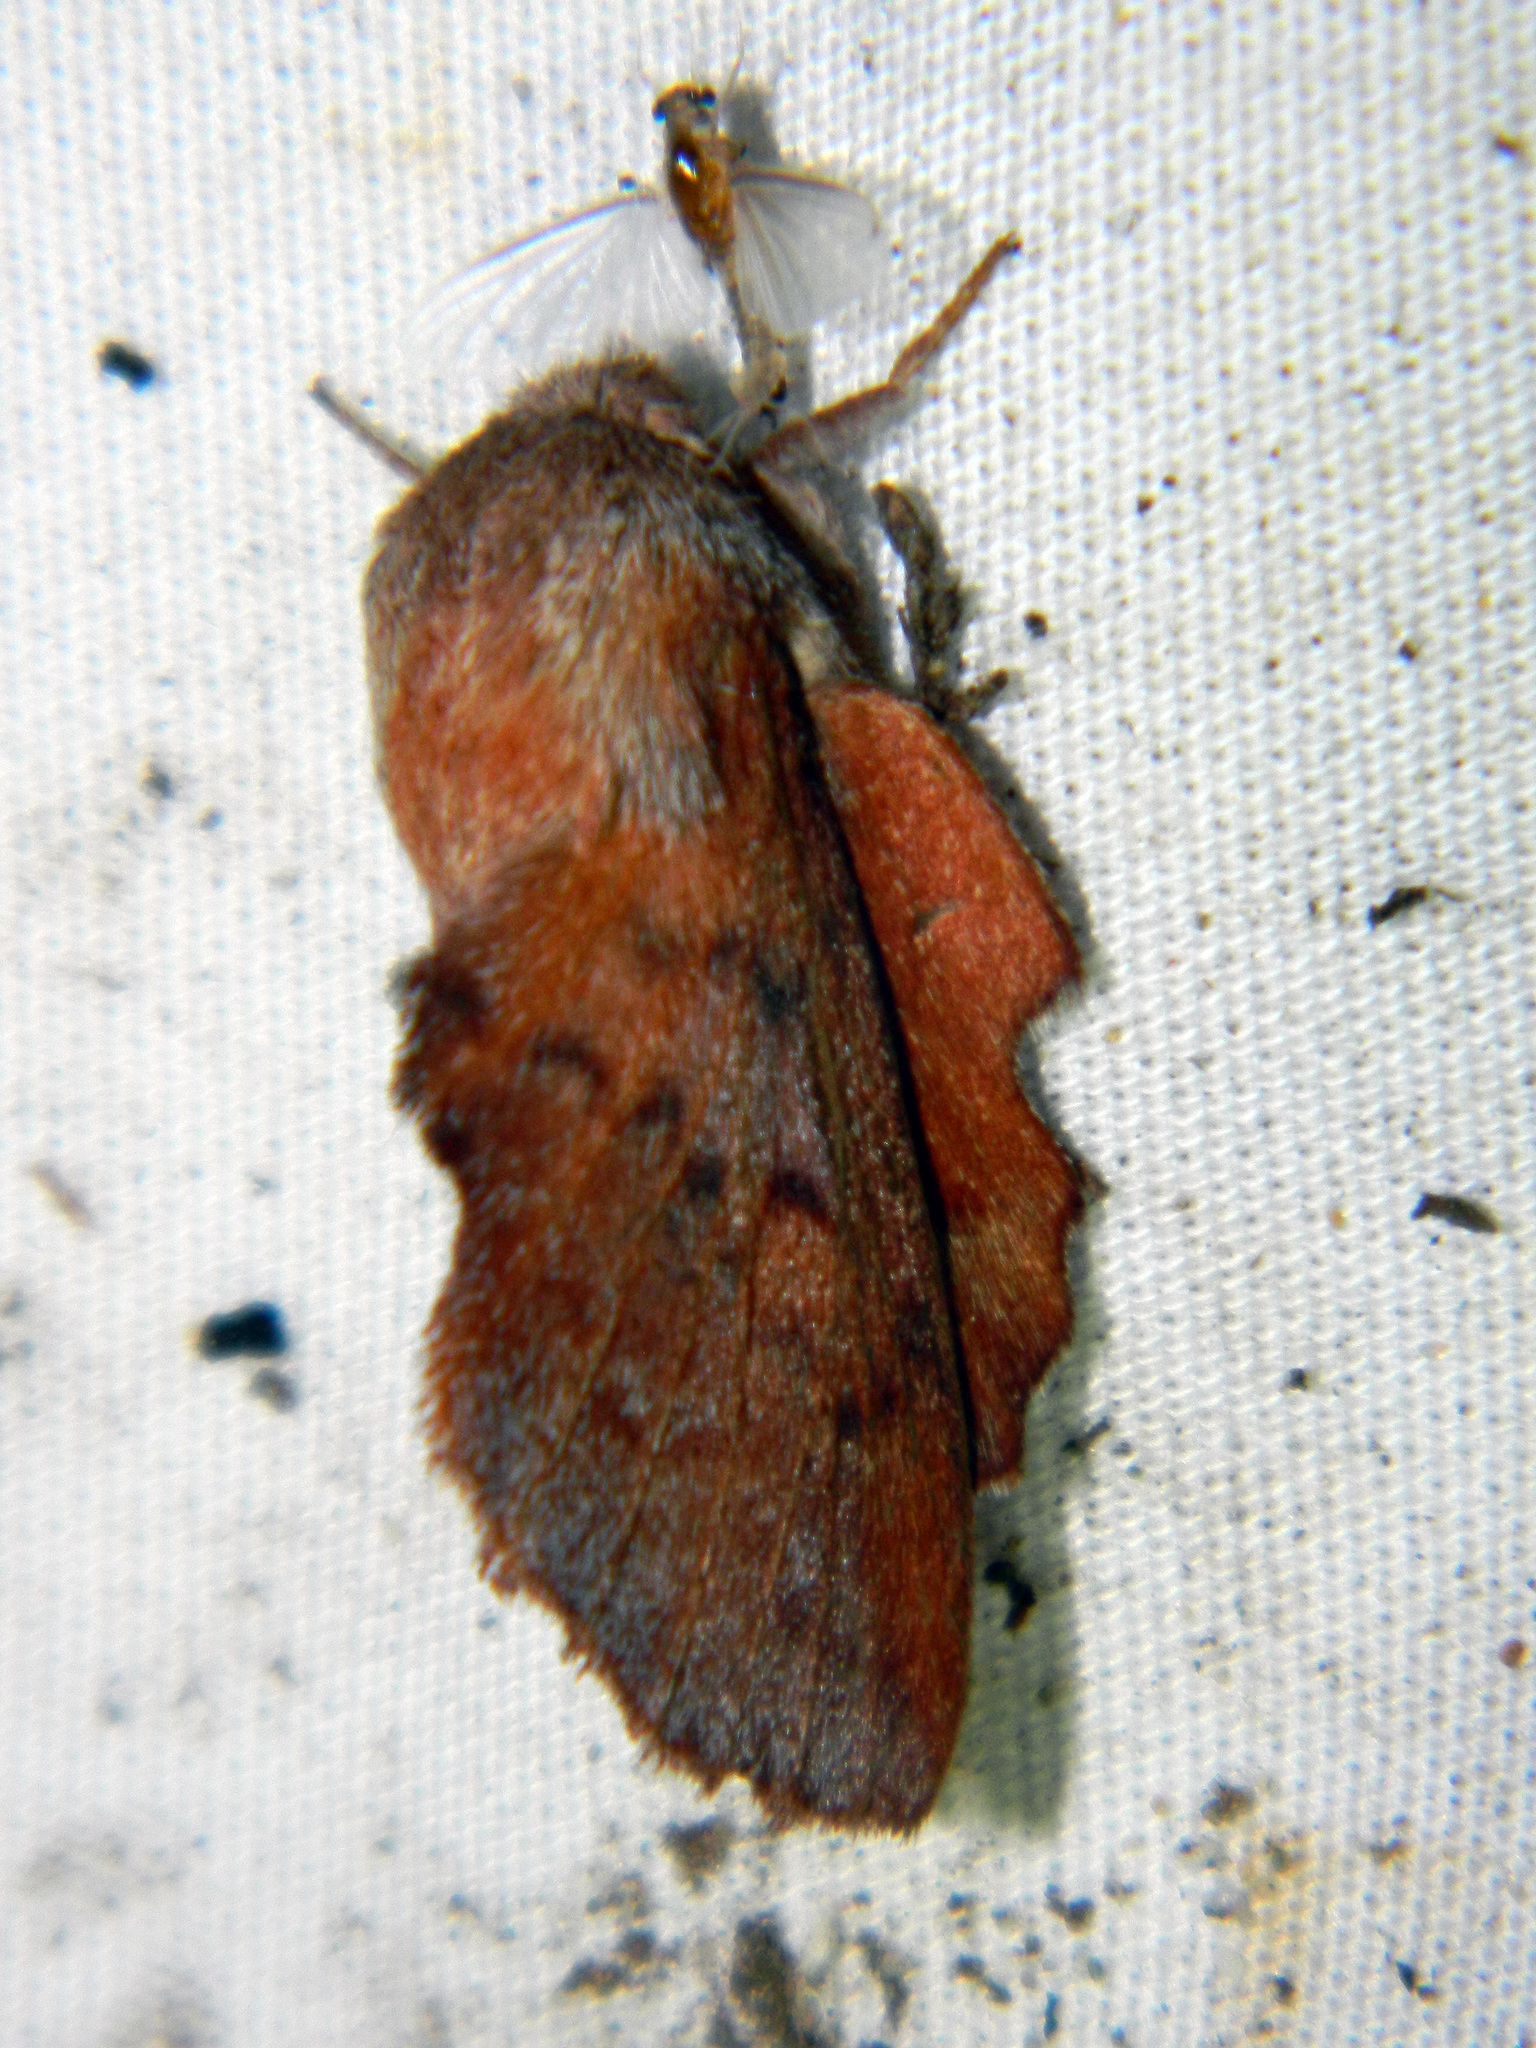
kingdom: Animalia
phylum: Arthropoda
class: Insecta
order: Lepidoptera
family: Lasiocampidae
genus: Phyllodesma
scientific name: Phyllodesma americana
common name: American lappet moth
